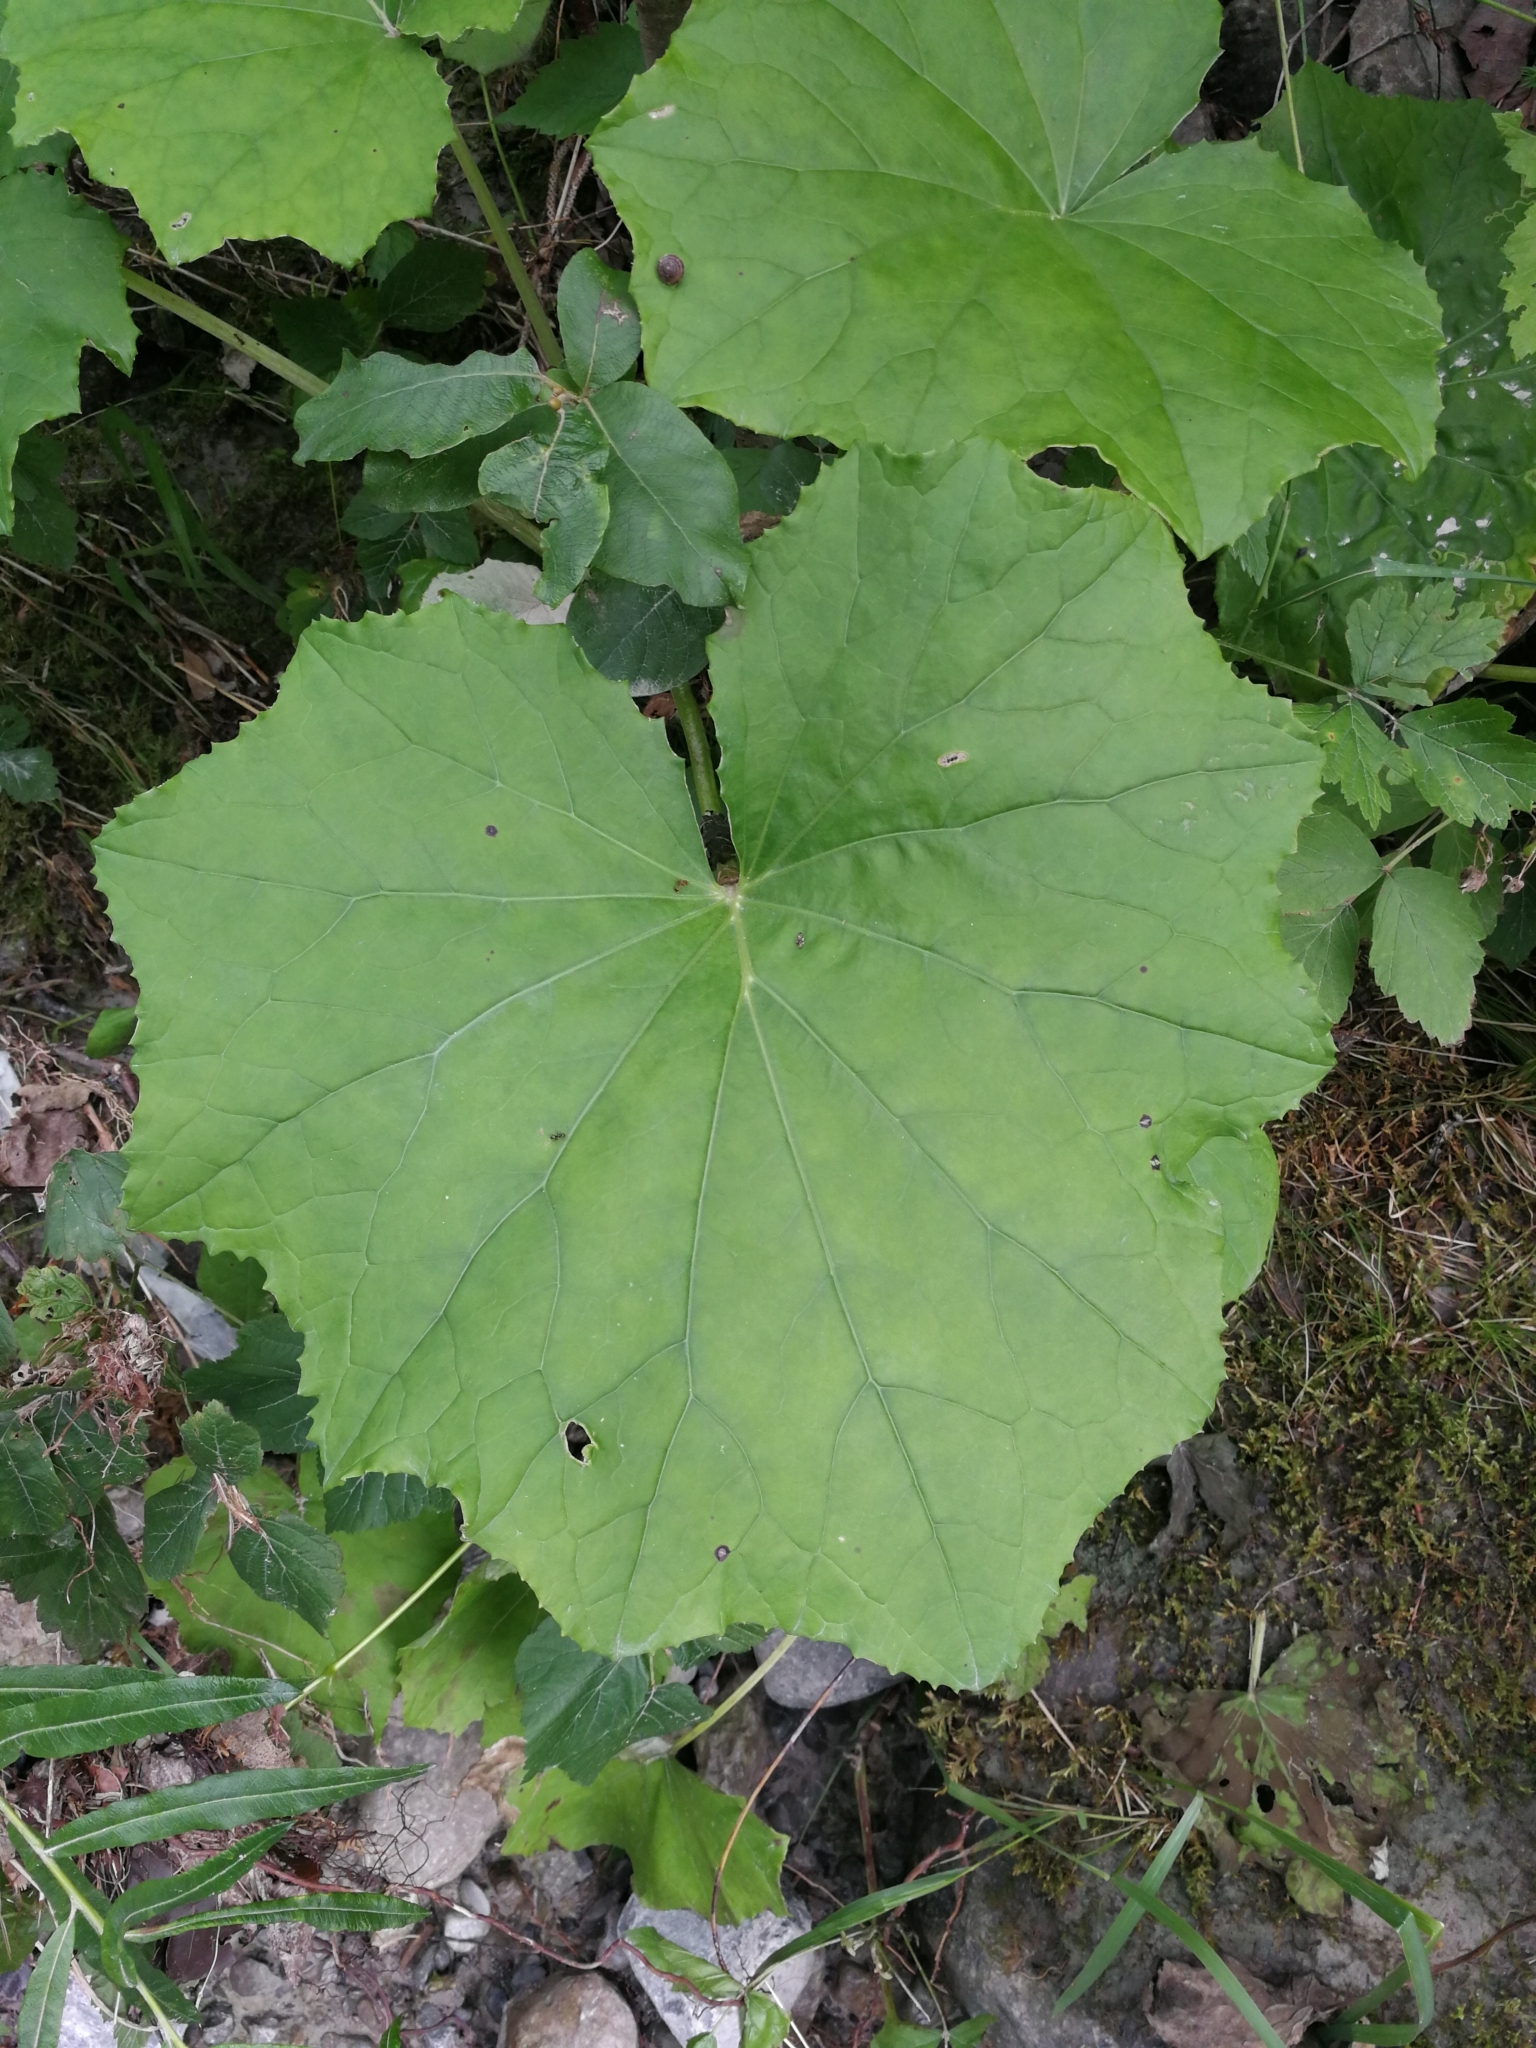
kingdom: Plantae
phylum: Tracheophyta
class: Magnoliopsida
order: Asterales
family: Asteraceae
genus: Tussilago
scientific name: Tussilago farfara
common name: Coltsfoot
